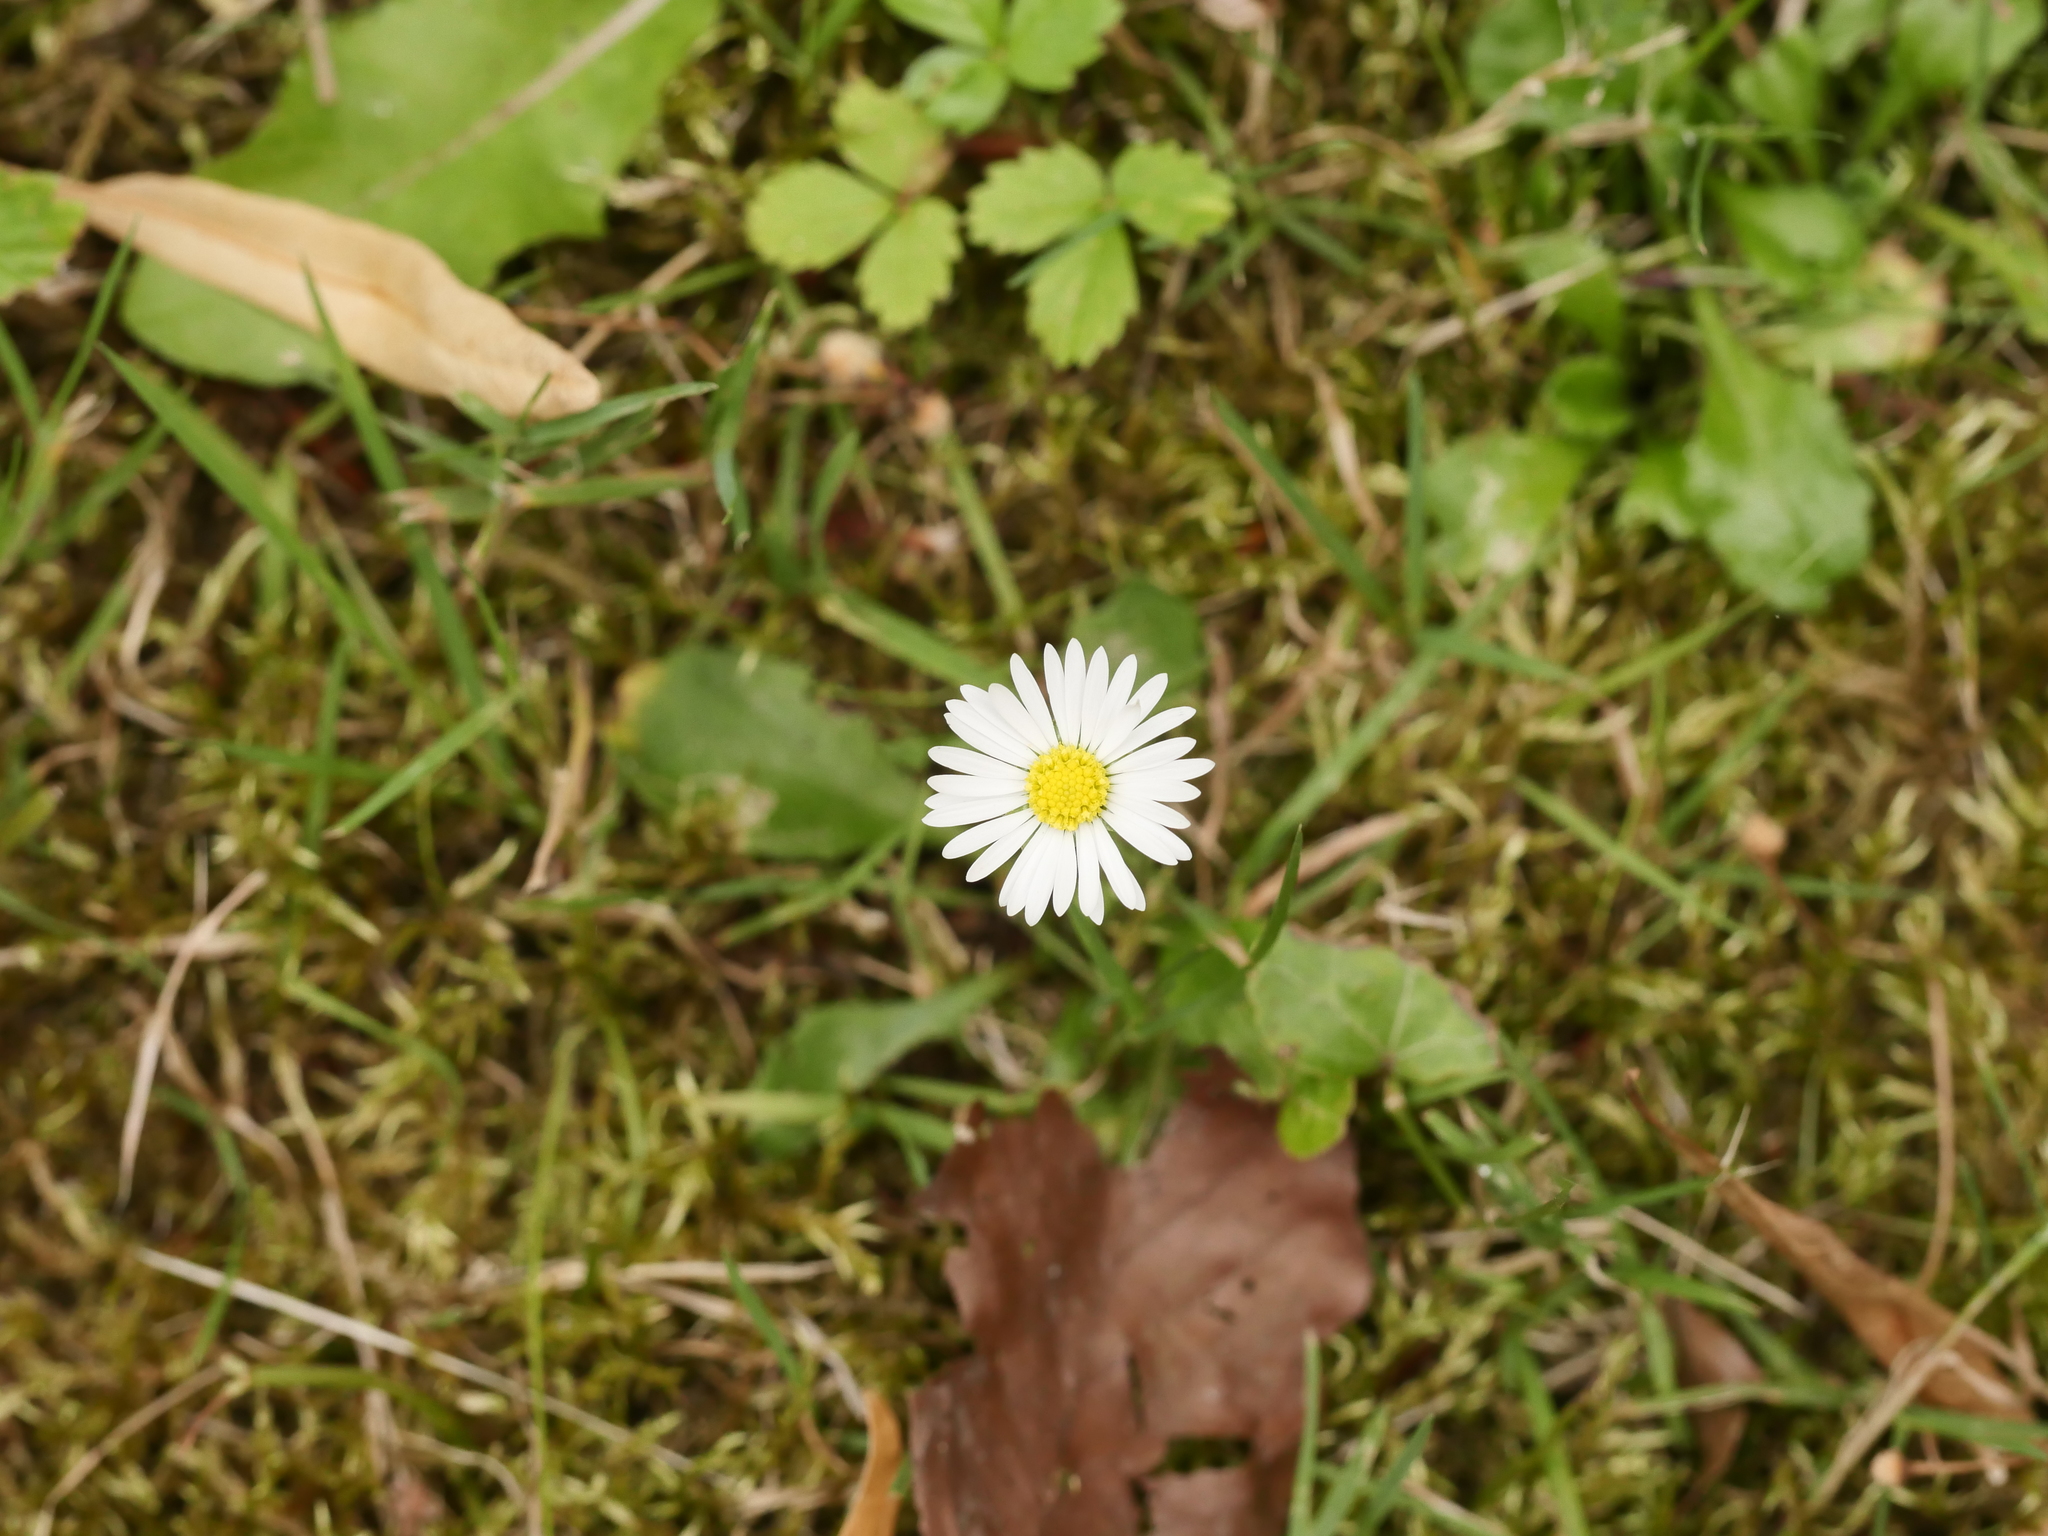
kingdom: Plantae
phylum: Tracheophyta
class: Magnoliopsida
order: Asterales
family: Asteraceae
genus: Bellis
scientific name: Bellis perennis
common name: Lawndaisy
